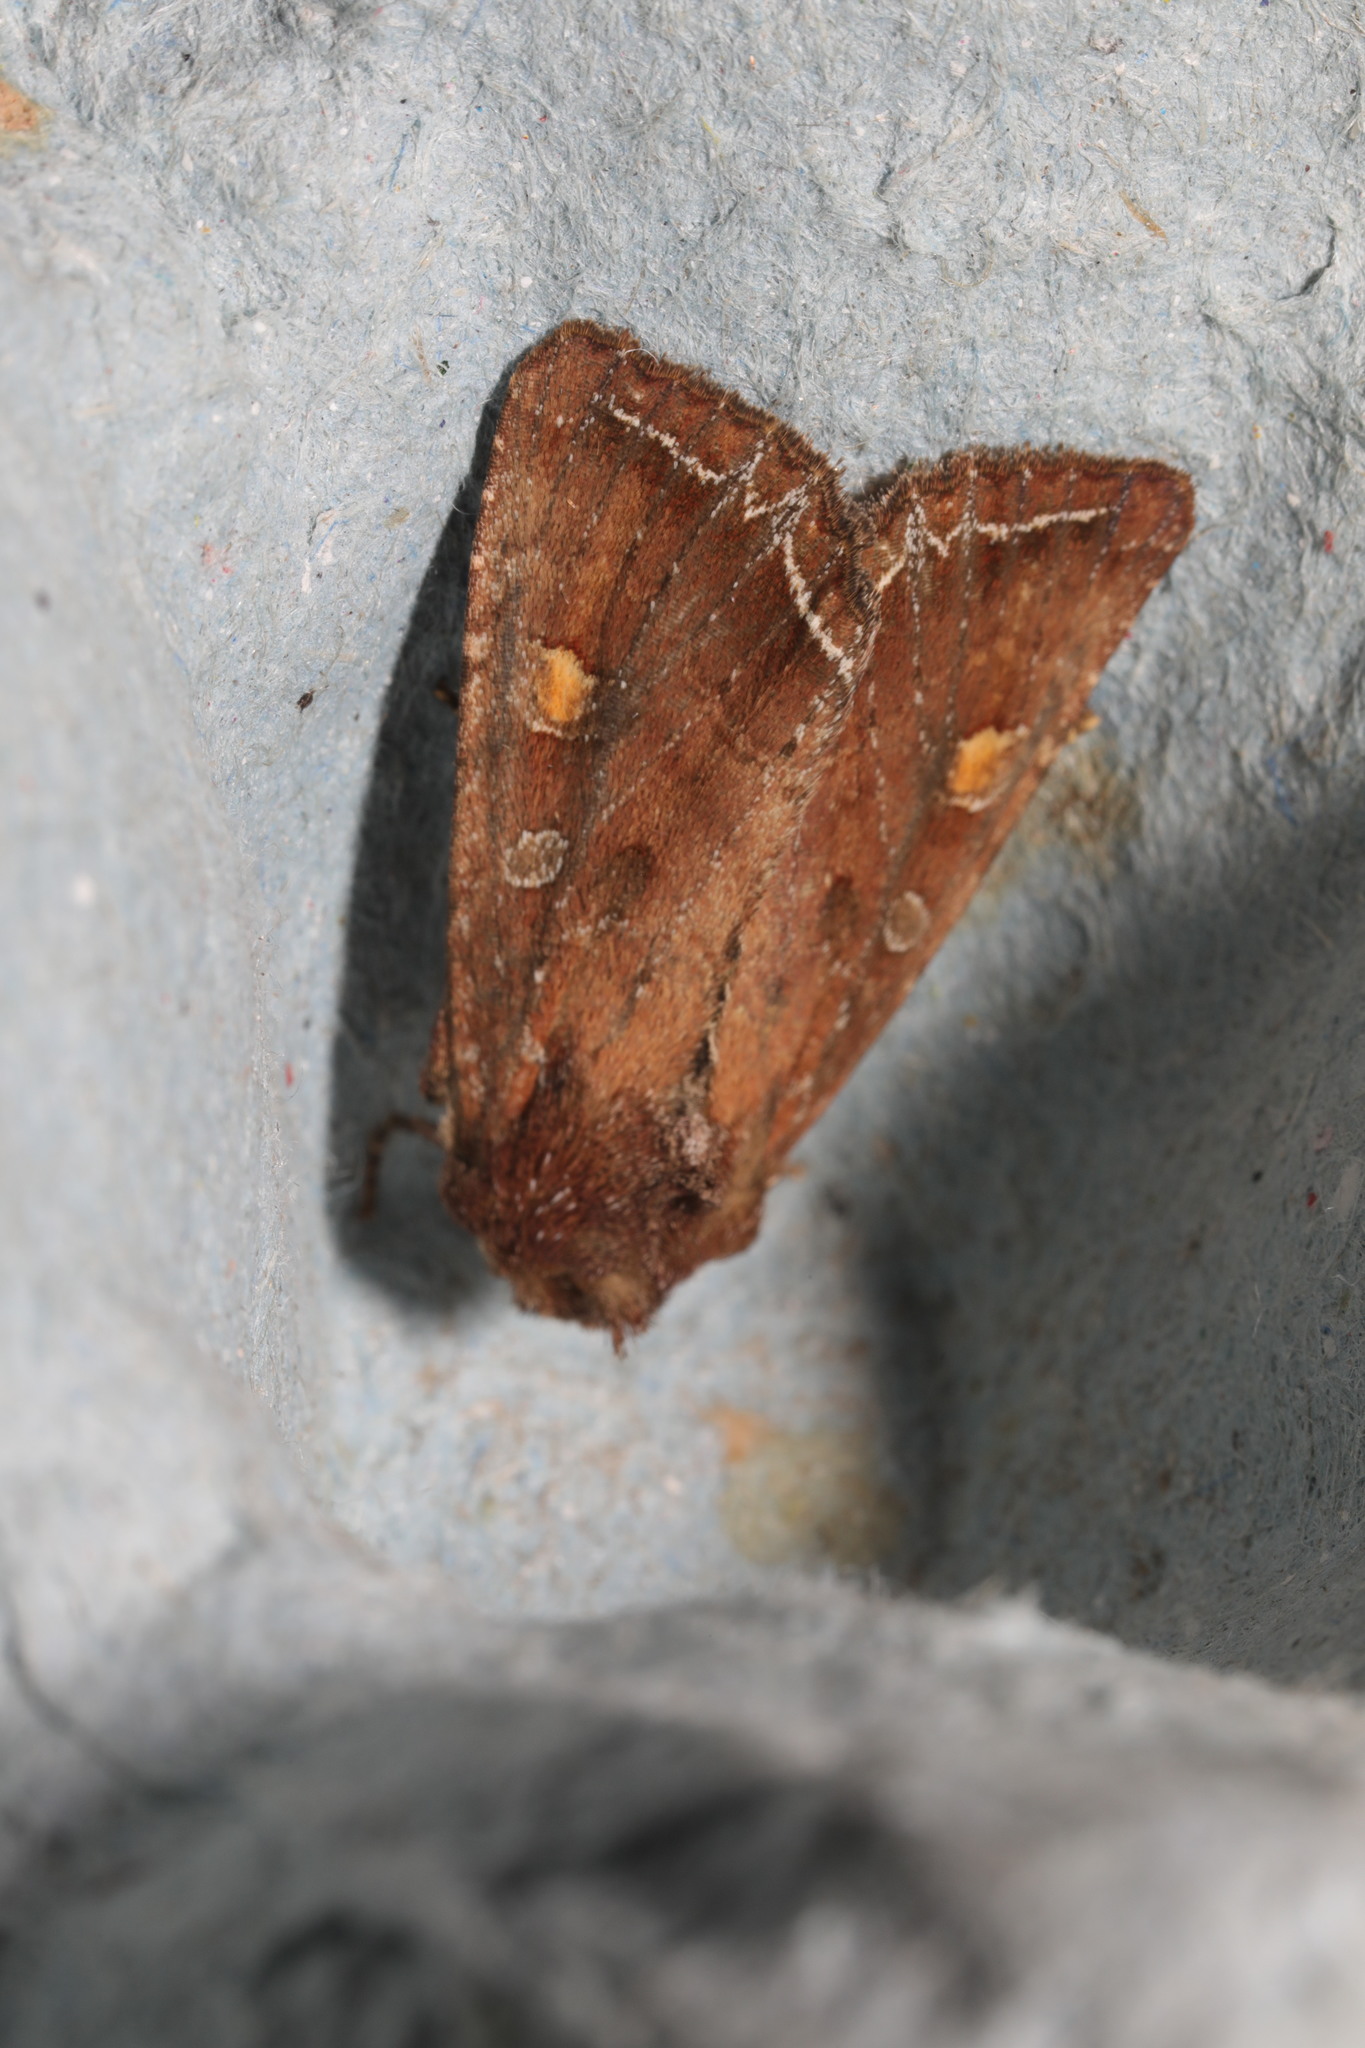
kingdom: Animalia
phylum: Arthropoda
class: Insecta
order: Lepidoptera
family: Noctuidae
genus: Lacanobia
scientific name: Lacanobia oleracea
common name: Bright-line brown-eye
